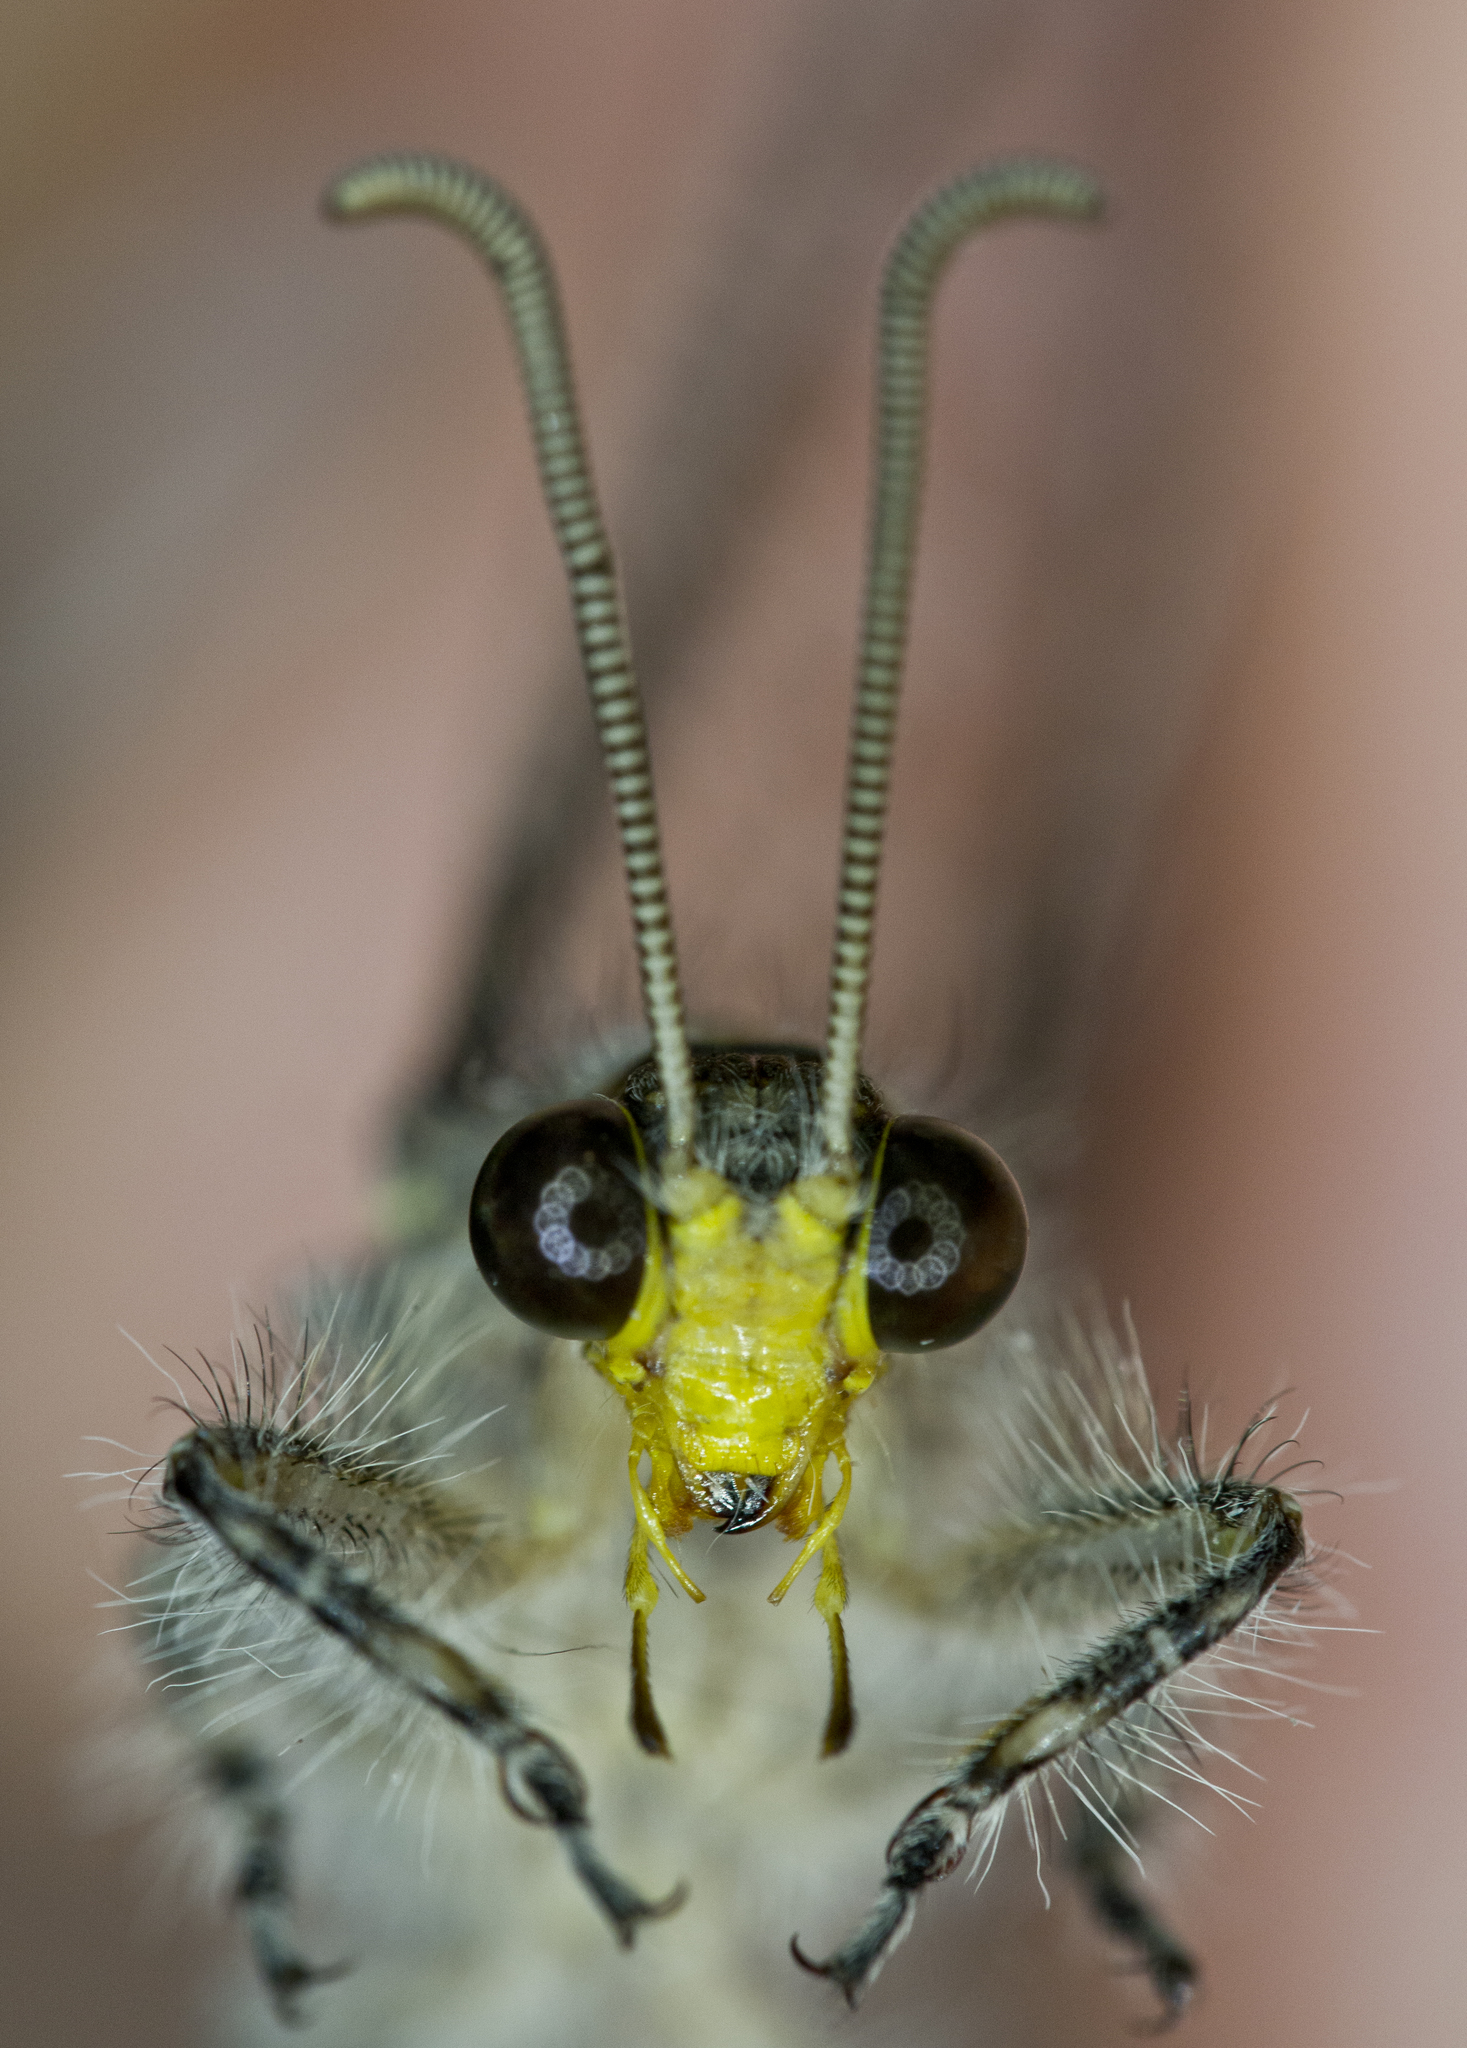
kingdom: Animalia
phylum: Arthropoda
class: Insecta
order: Neuroptera
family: Myrmeleontidae
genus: Vella
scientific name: Vella fallax
